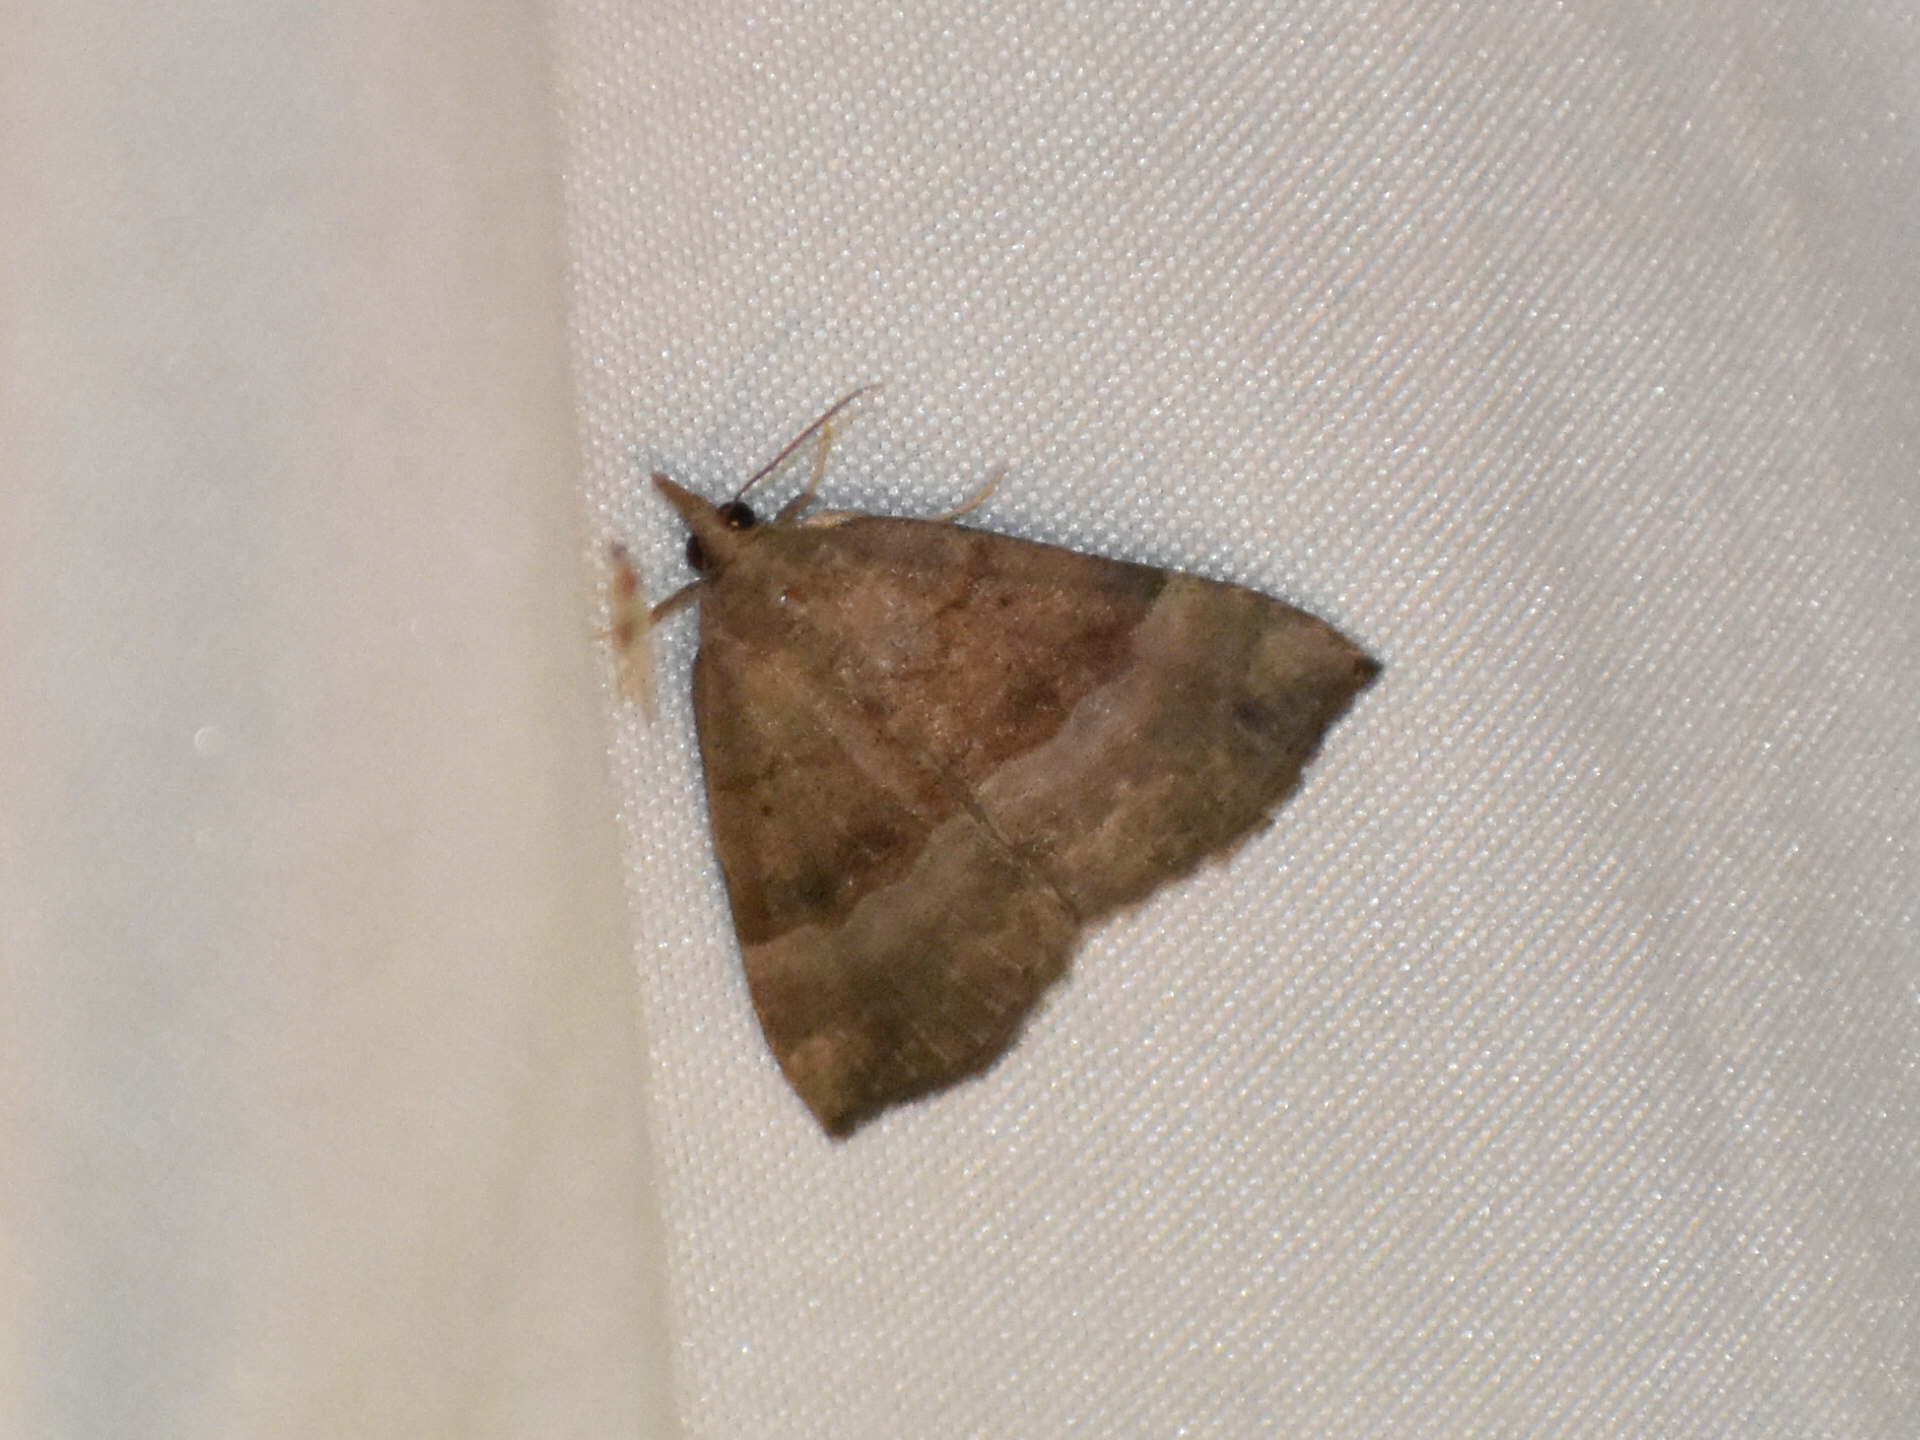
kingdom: Animalia
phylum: Arthropoda
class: Insecta
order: Lepidoptera
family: Erebidae
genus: Hypena
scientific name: Hypena madefactalis
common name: Gray-edged snout
